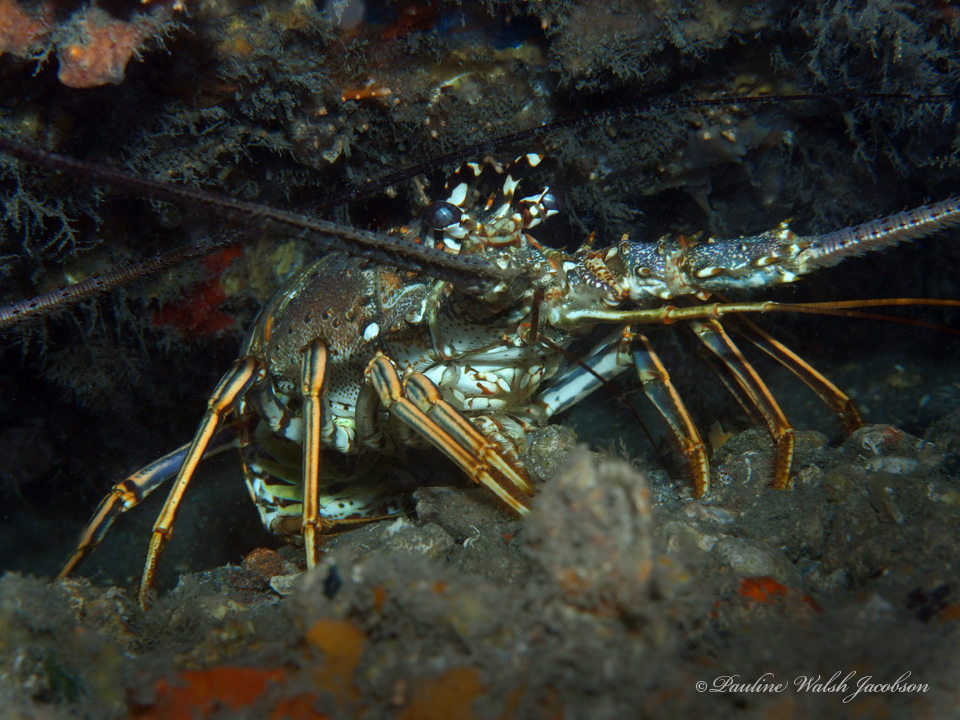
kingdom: Animalia
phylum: Arthropoda
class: Malacostraca
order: Decapoda
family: Palinuridae
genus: Panulirus
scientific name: Panulirus argus
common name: Caribbean spiny lobster
